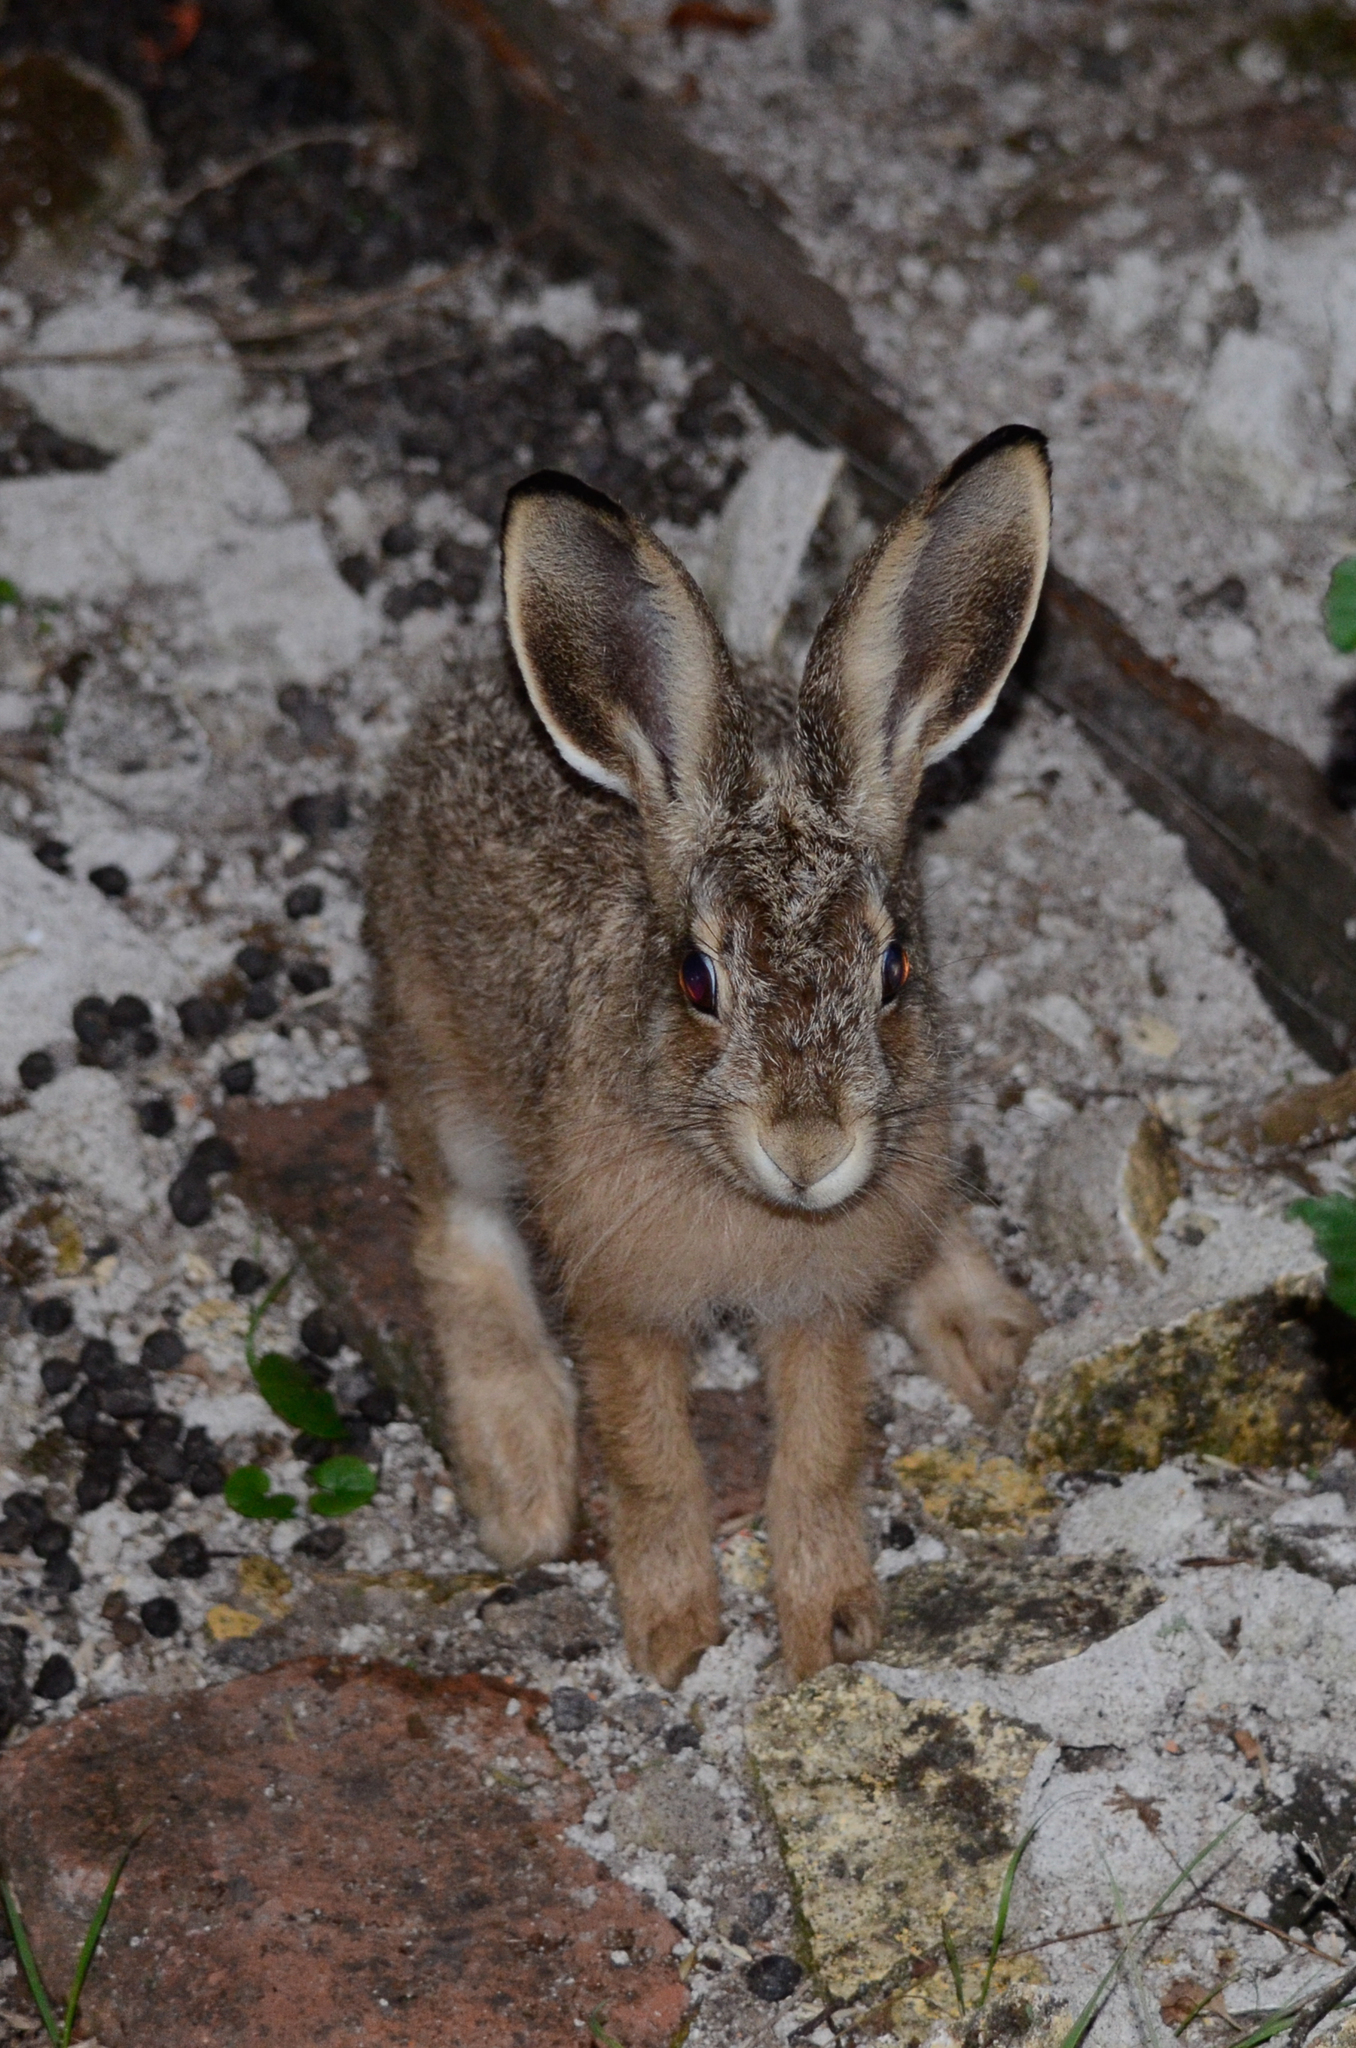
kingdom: Animalia
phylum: Chordata
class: Mammalia
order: Lagomorpha
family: Leporidae
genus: Lepus
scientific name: Lepus europaeus
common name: European hare
